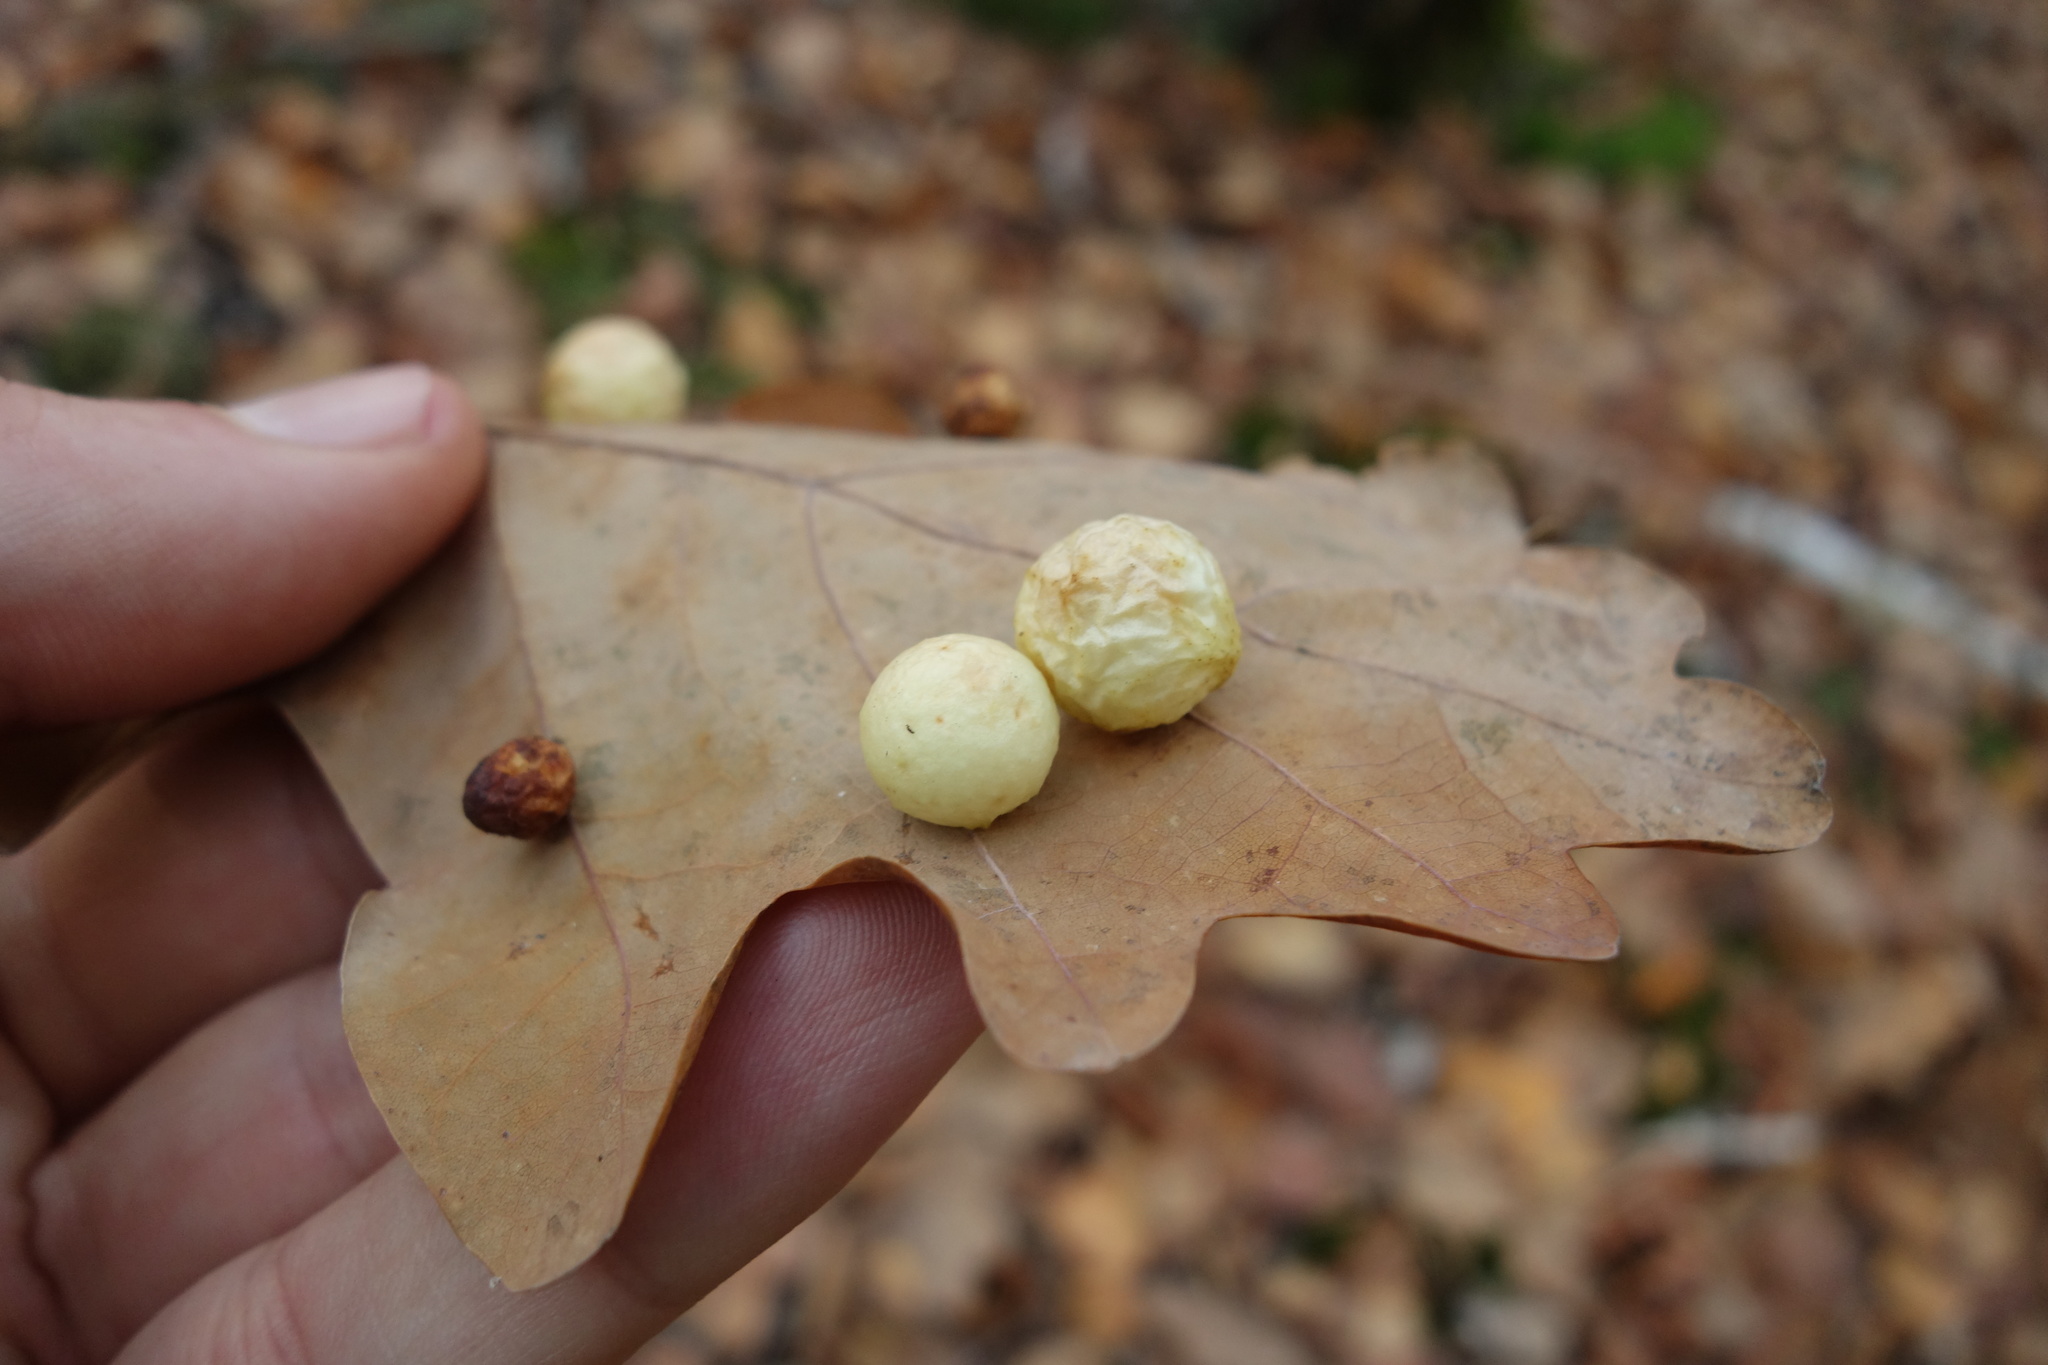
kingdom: Animalia
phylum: Arthropoda
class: Insecta
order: Hymenoptera
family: Cynipidae
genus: Cynips
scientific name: Cynips quercusfolii
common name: Cherry gall
